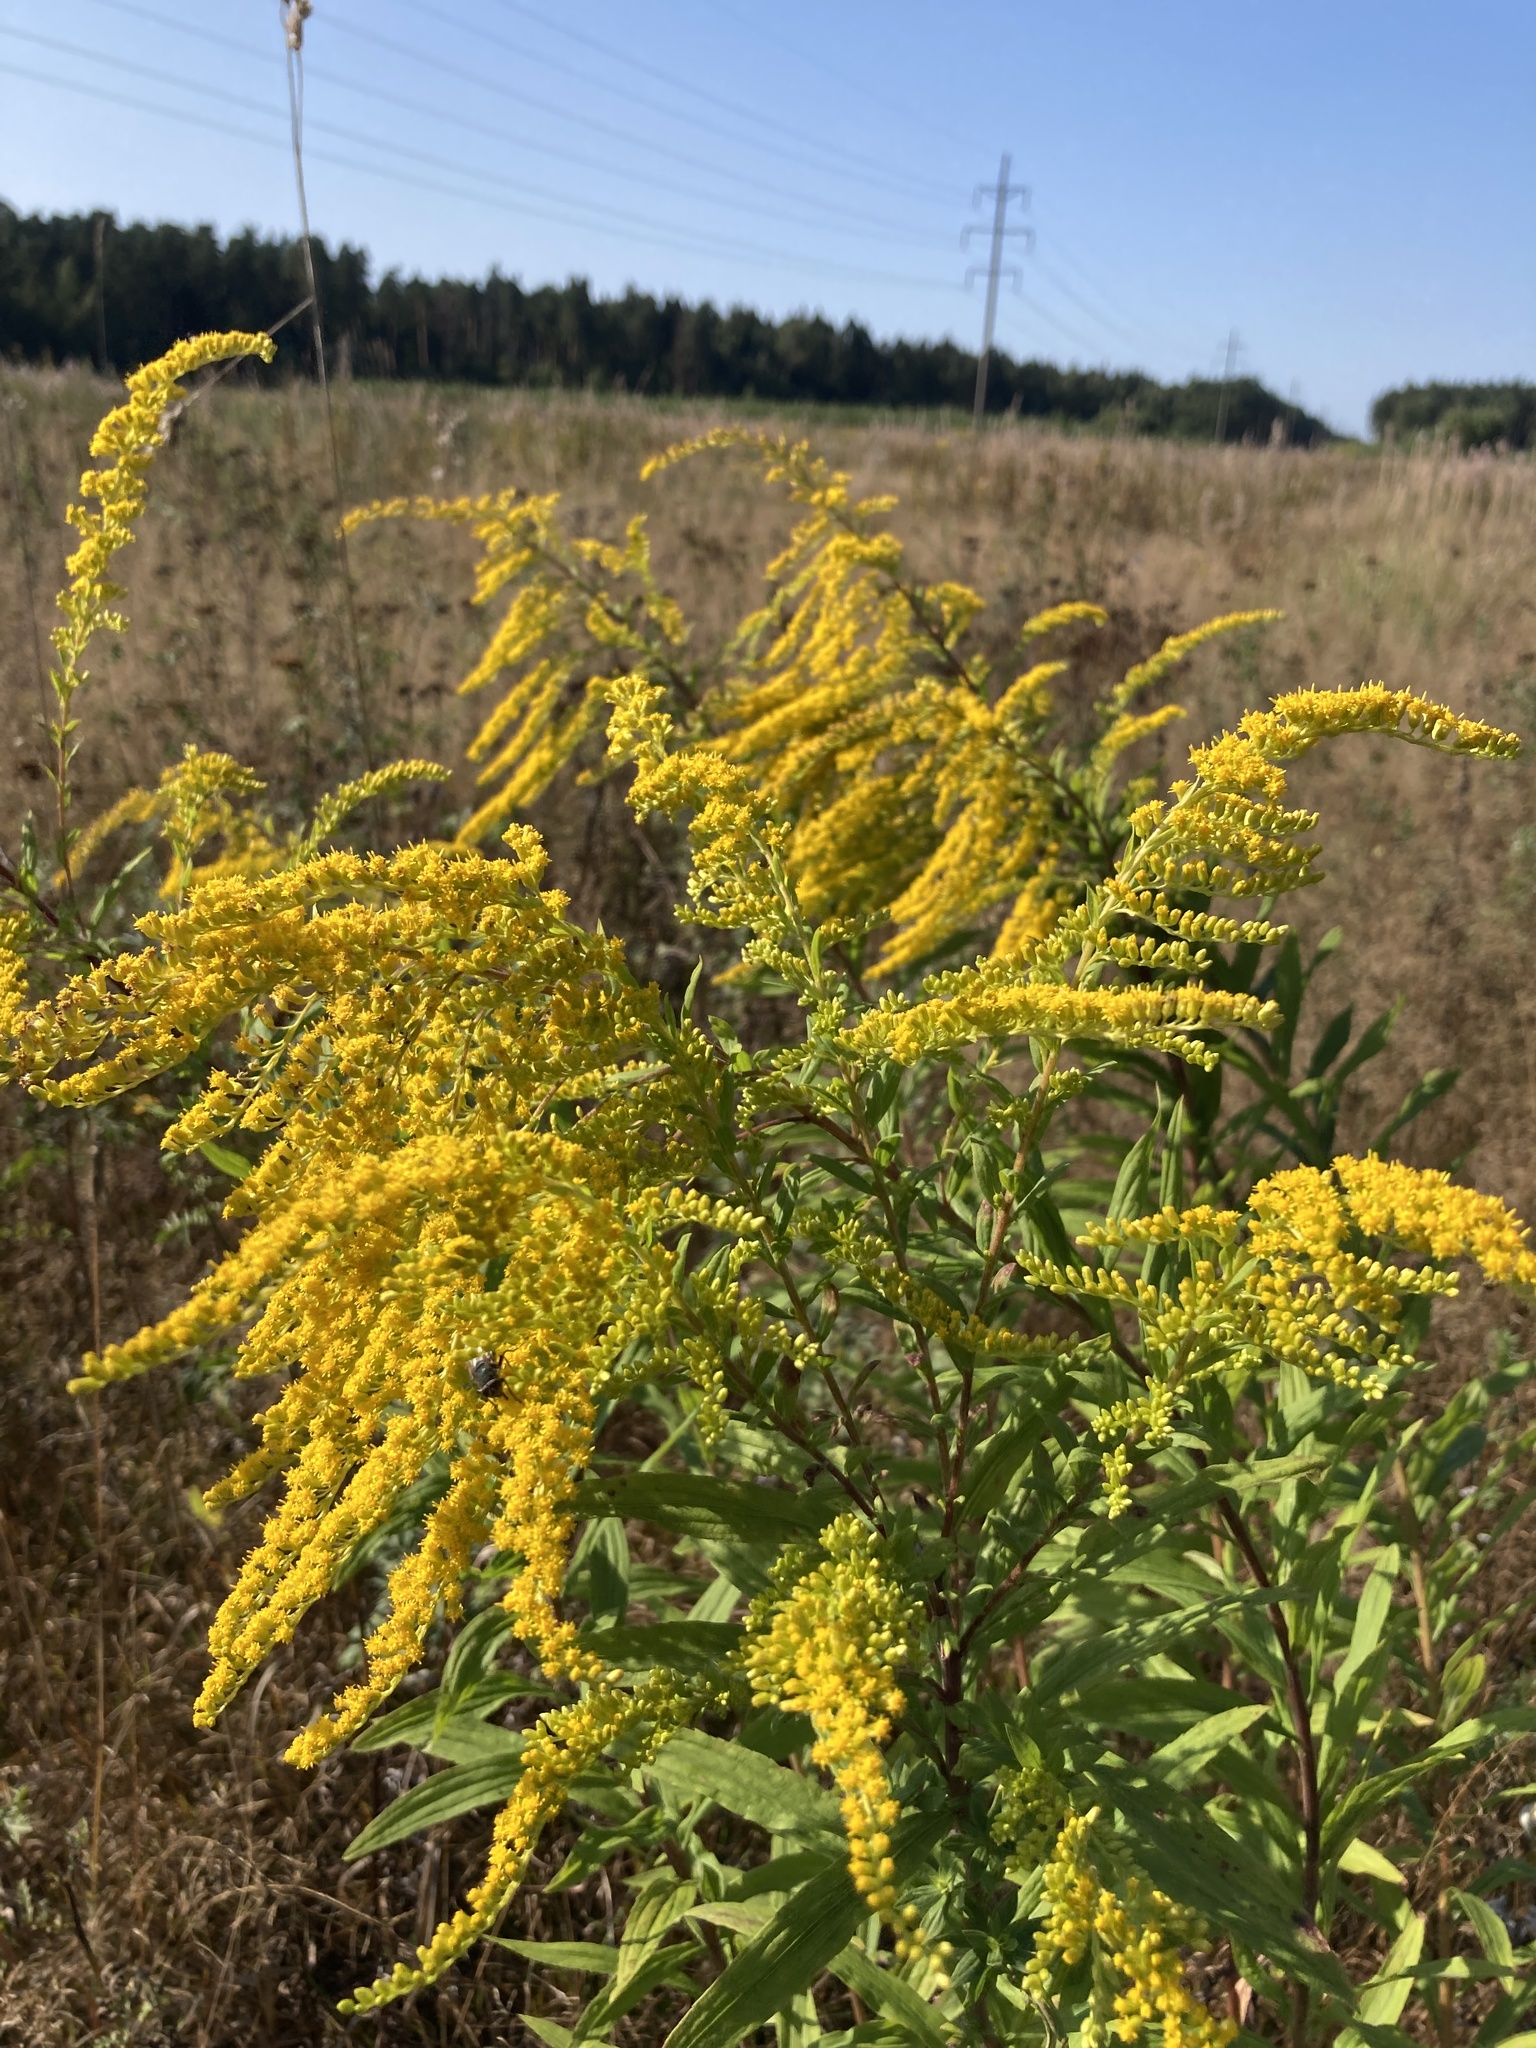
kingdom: Plantae
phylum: Tracheophyta
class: Magnoliopsida
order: Asterales
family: Asteraceae
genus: Solidago
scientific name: Solidago canadensis
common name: Canada goldenrod
